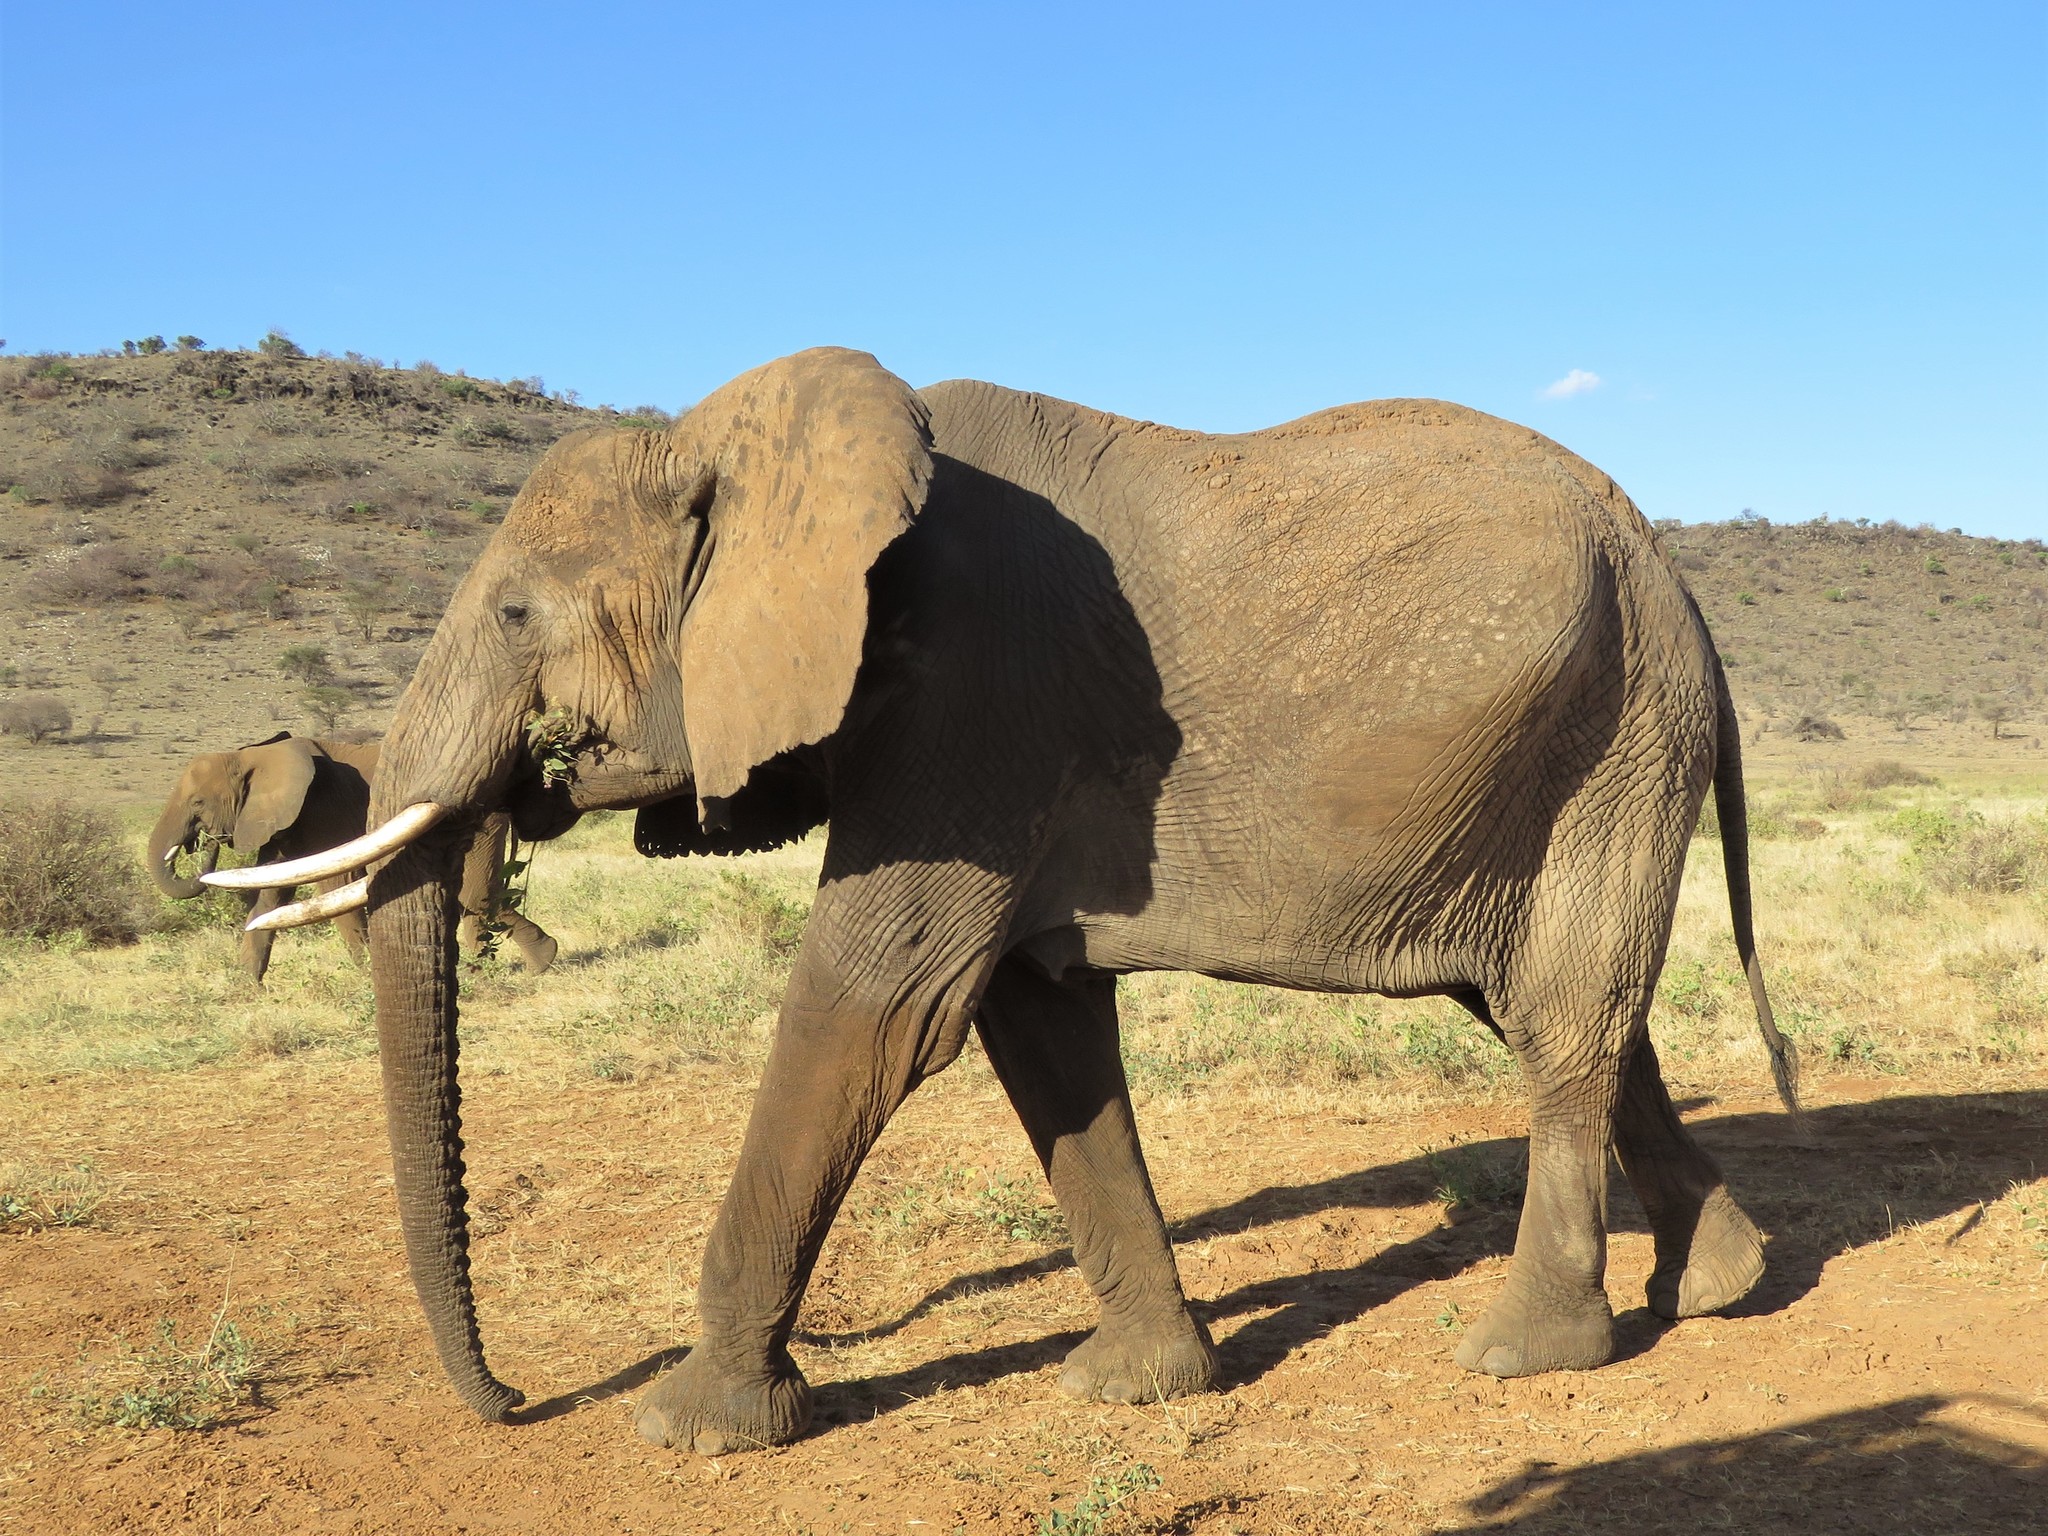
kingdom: Animalia
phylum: Chordata
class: Mammalia
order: Proboscidea
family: Elephantidae
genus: Loxodonta
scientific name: Loxodonta africana
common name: African elephant
